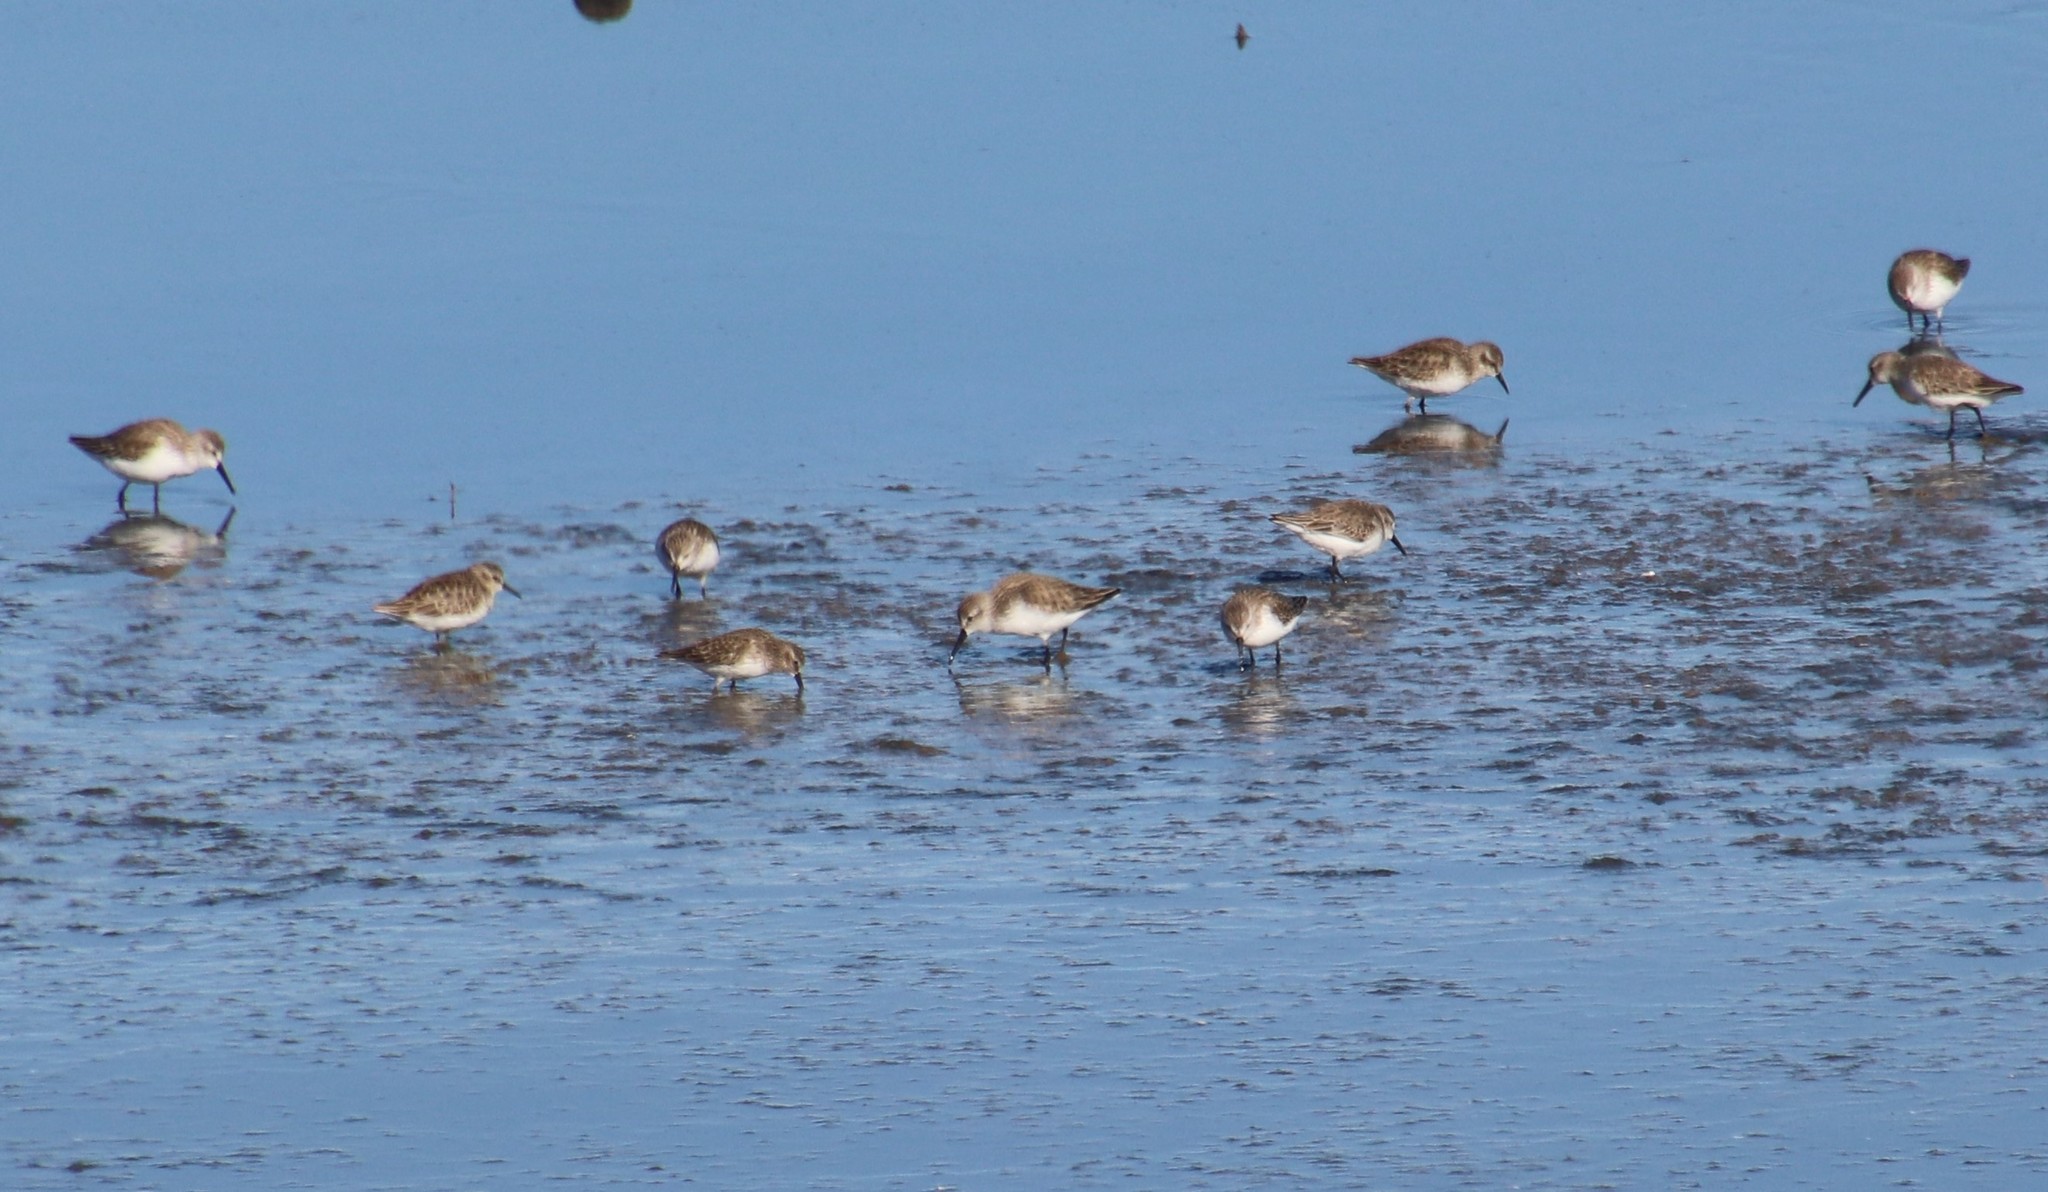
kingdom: Animalia
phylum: Chordata
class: Aves
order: Charadriiformes
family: Scolopacidae
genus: Calidris
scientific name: Calidris mauri
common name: Western sandpiper
